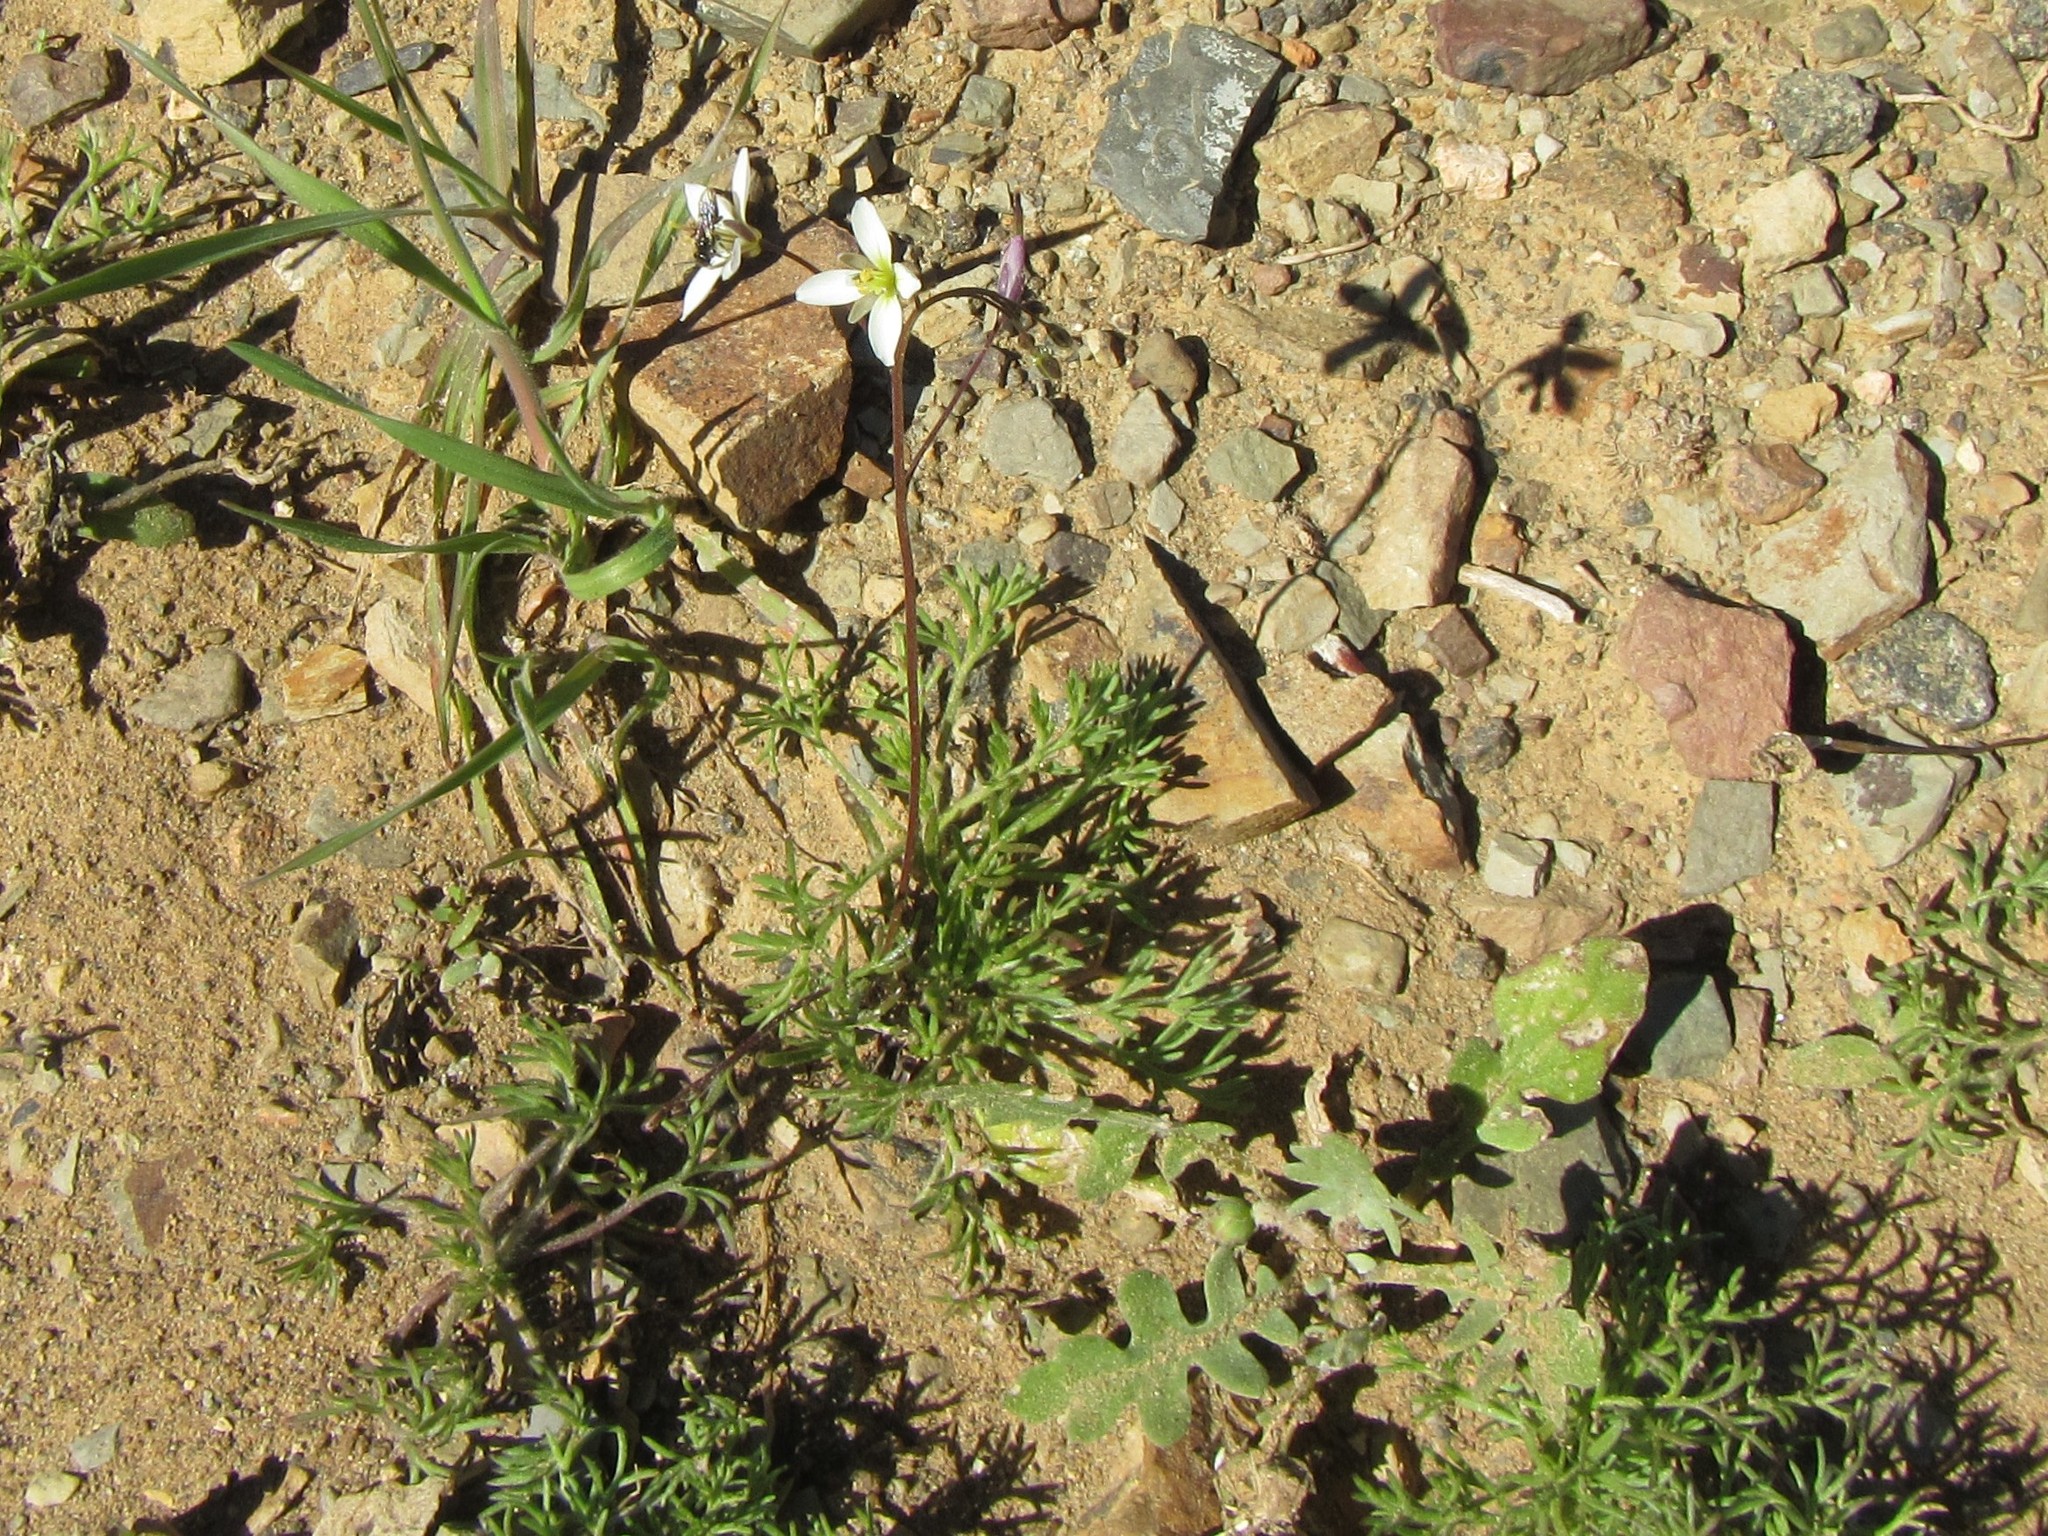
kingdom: Plantae
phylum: Tracheophyta
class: Magnoliopsida
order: Brassicales
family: Brassicaceae
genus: Heliophila
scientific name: Heliophila crithmifolia
